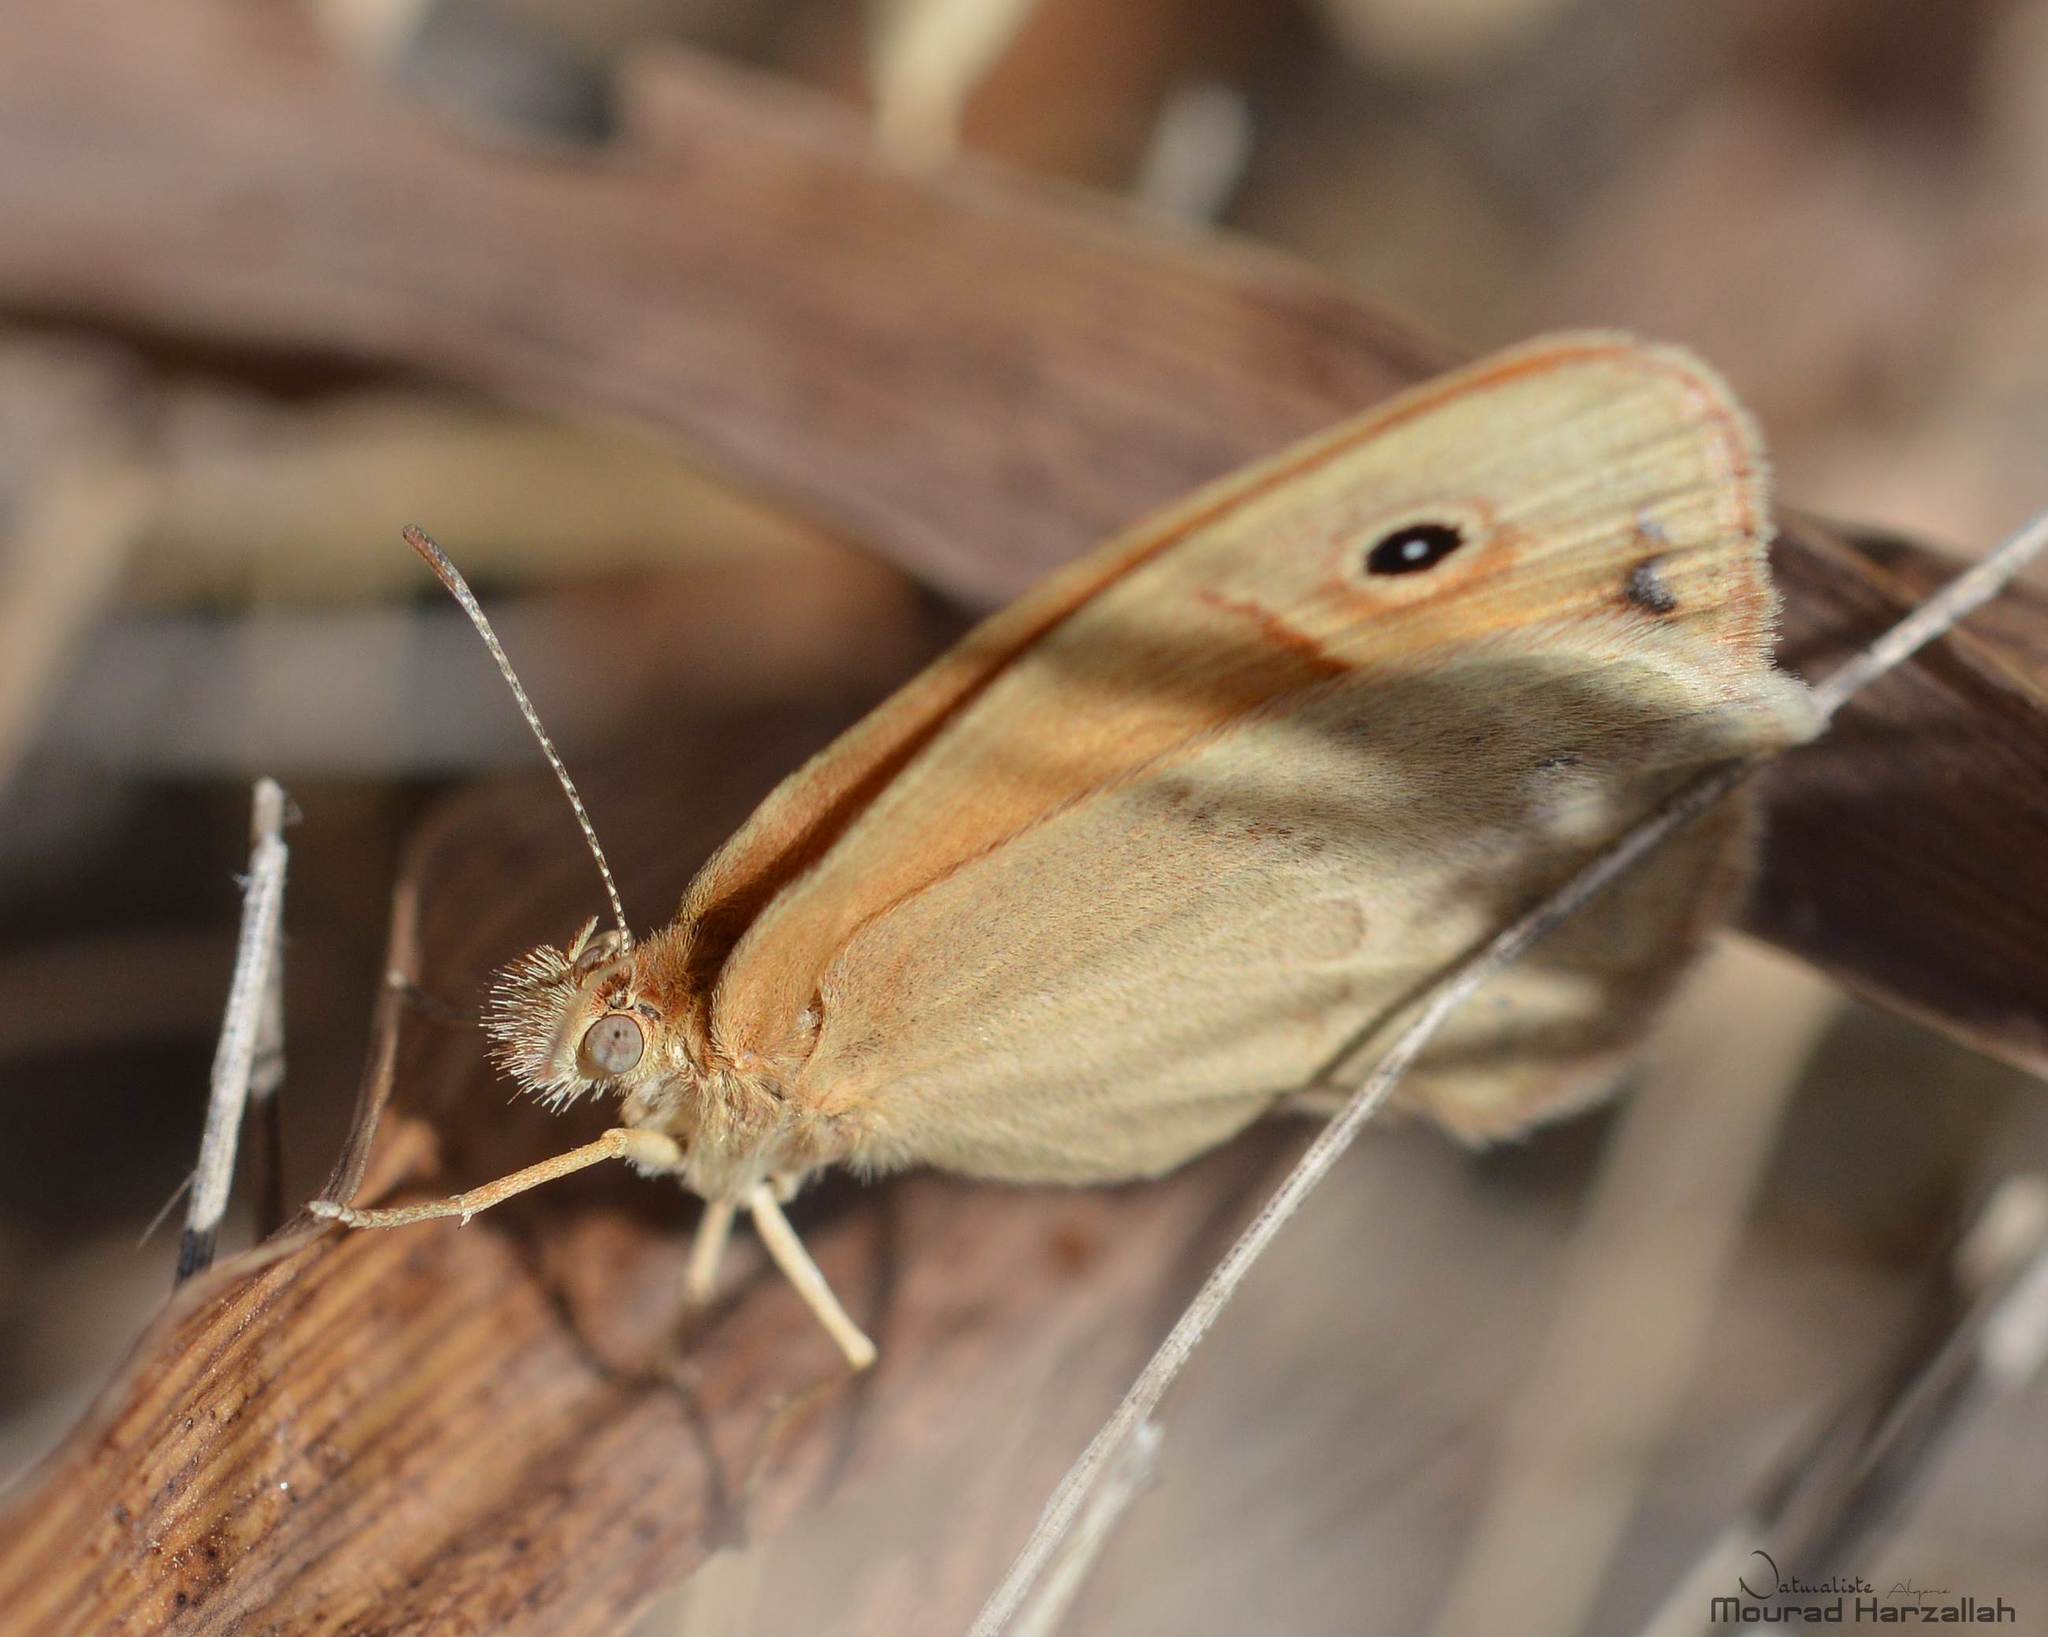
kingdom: Animalia
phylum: Arthropoda
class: Insecta
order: Lepidoptera
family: Nymphalidae
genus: Coenonympha
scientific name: Coenonympha pamphilus
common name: Small heath
